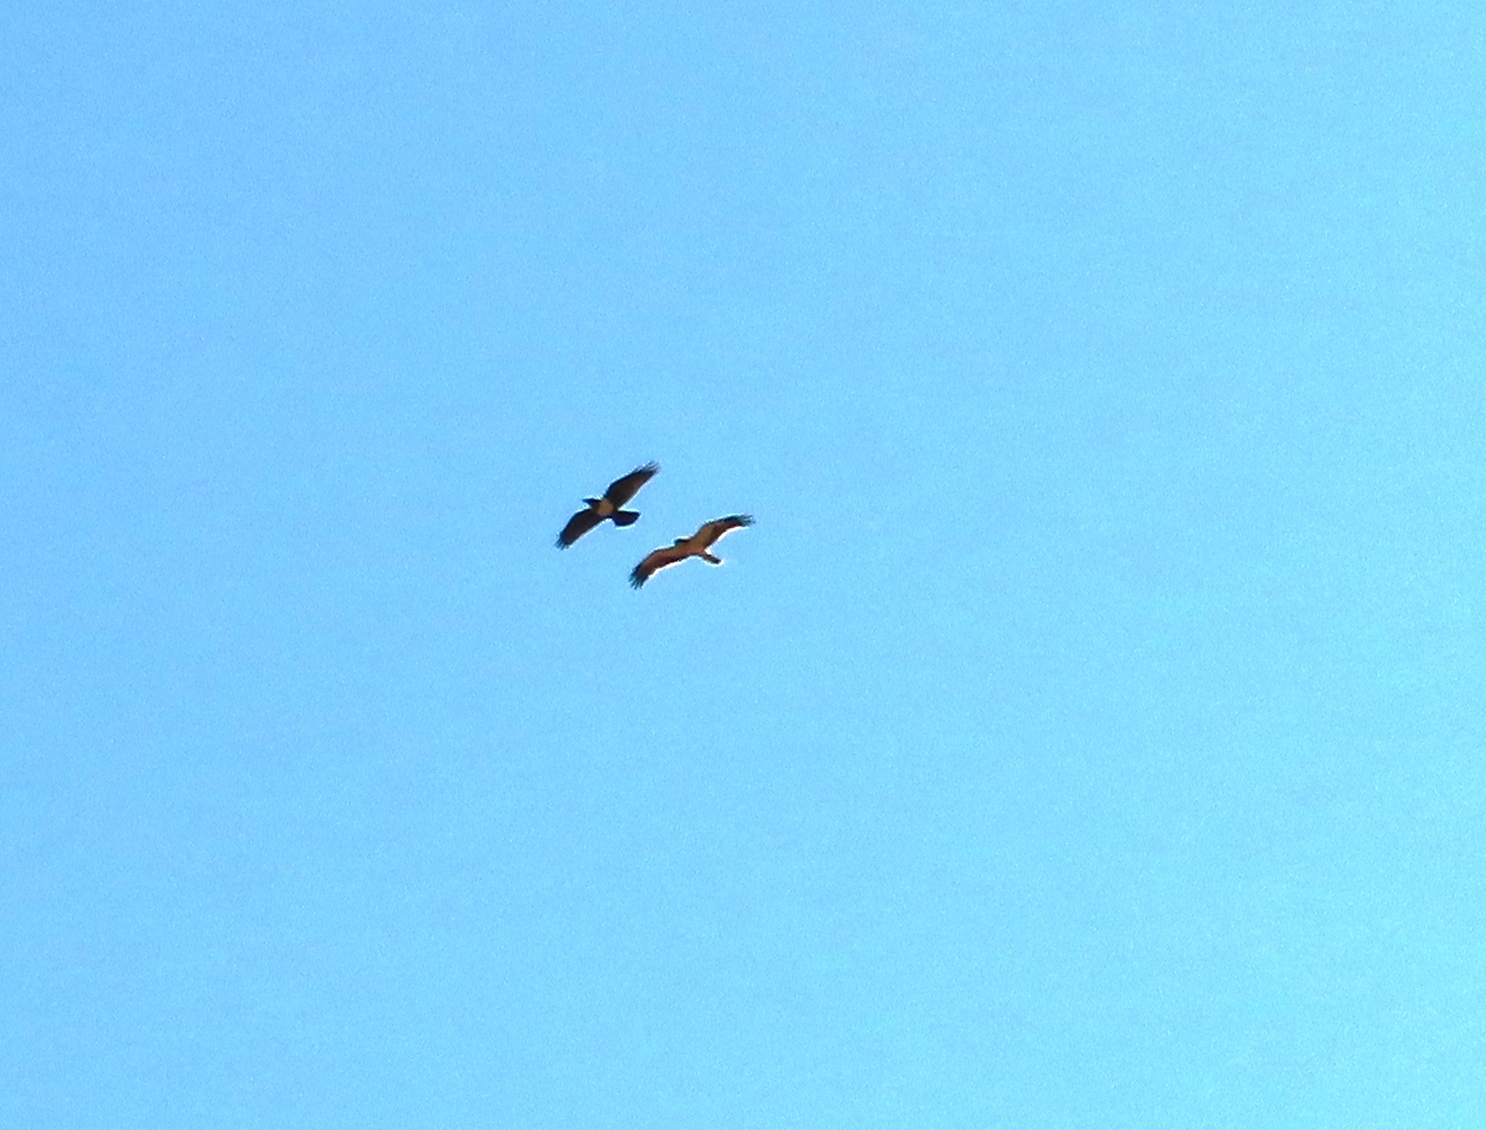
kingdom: Animalia
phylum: Chordata
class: Aves
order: Accipitriformes
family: Accipitridae
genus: Hieraaetus
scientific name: Hieraaetus pennatus
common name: Booted eagle
